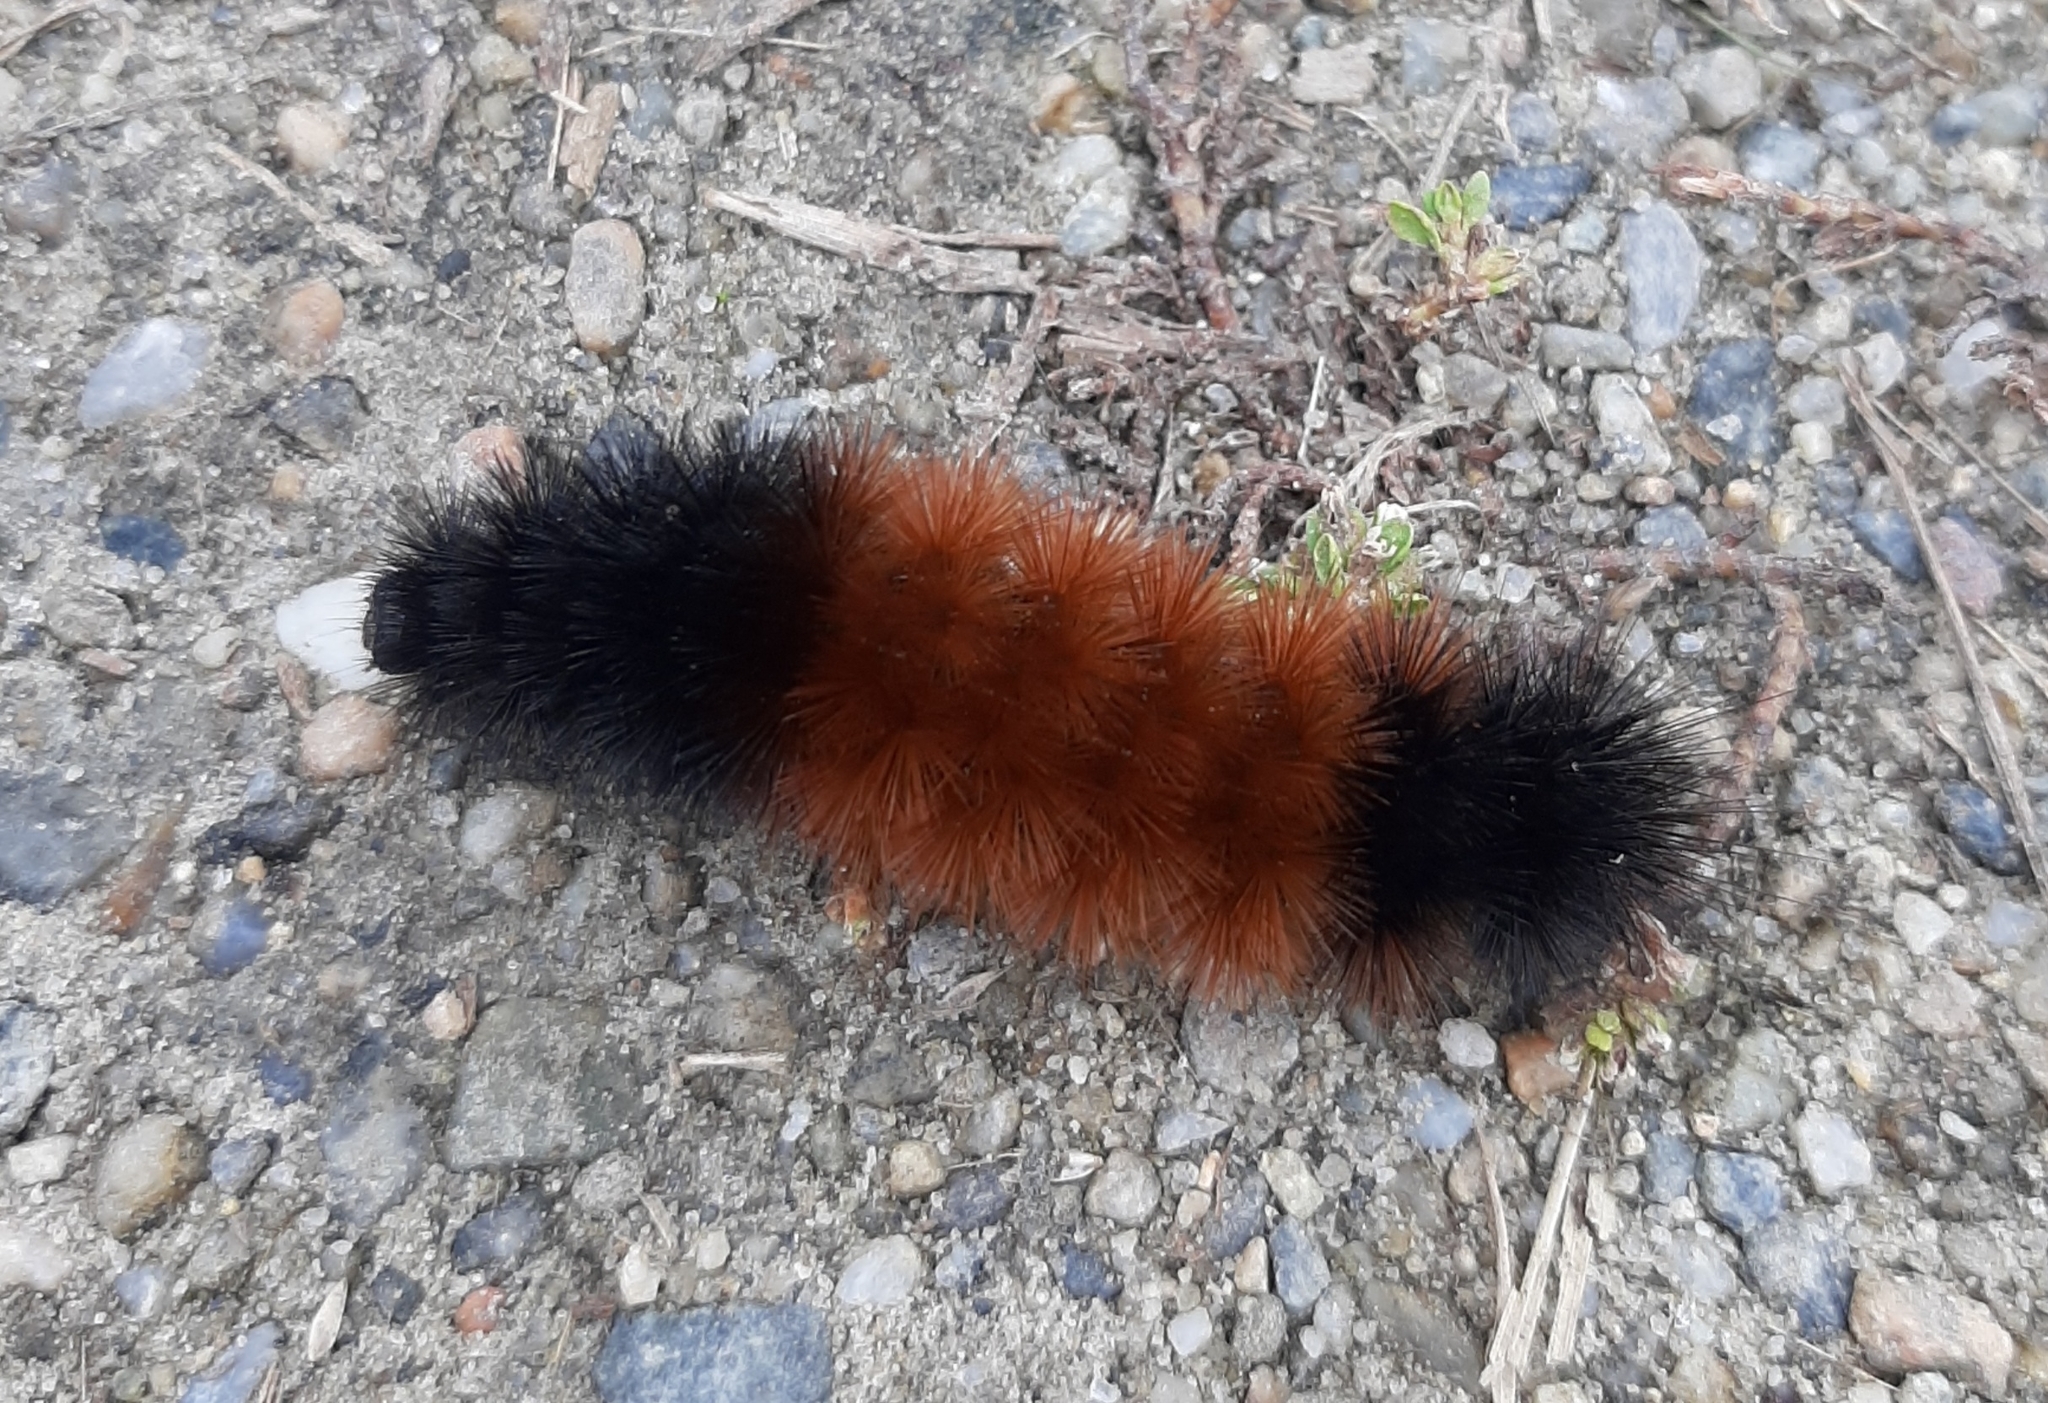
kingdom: Animalia
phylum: Arthropoda
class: Insecta
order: Lepidoptera
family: Erebidae
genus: Pyrrharctia
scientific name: Pyrrharctia isabella
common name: Isabella tiger moth
